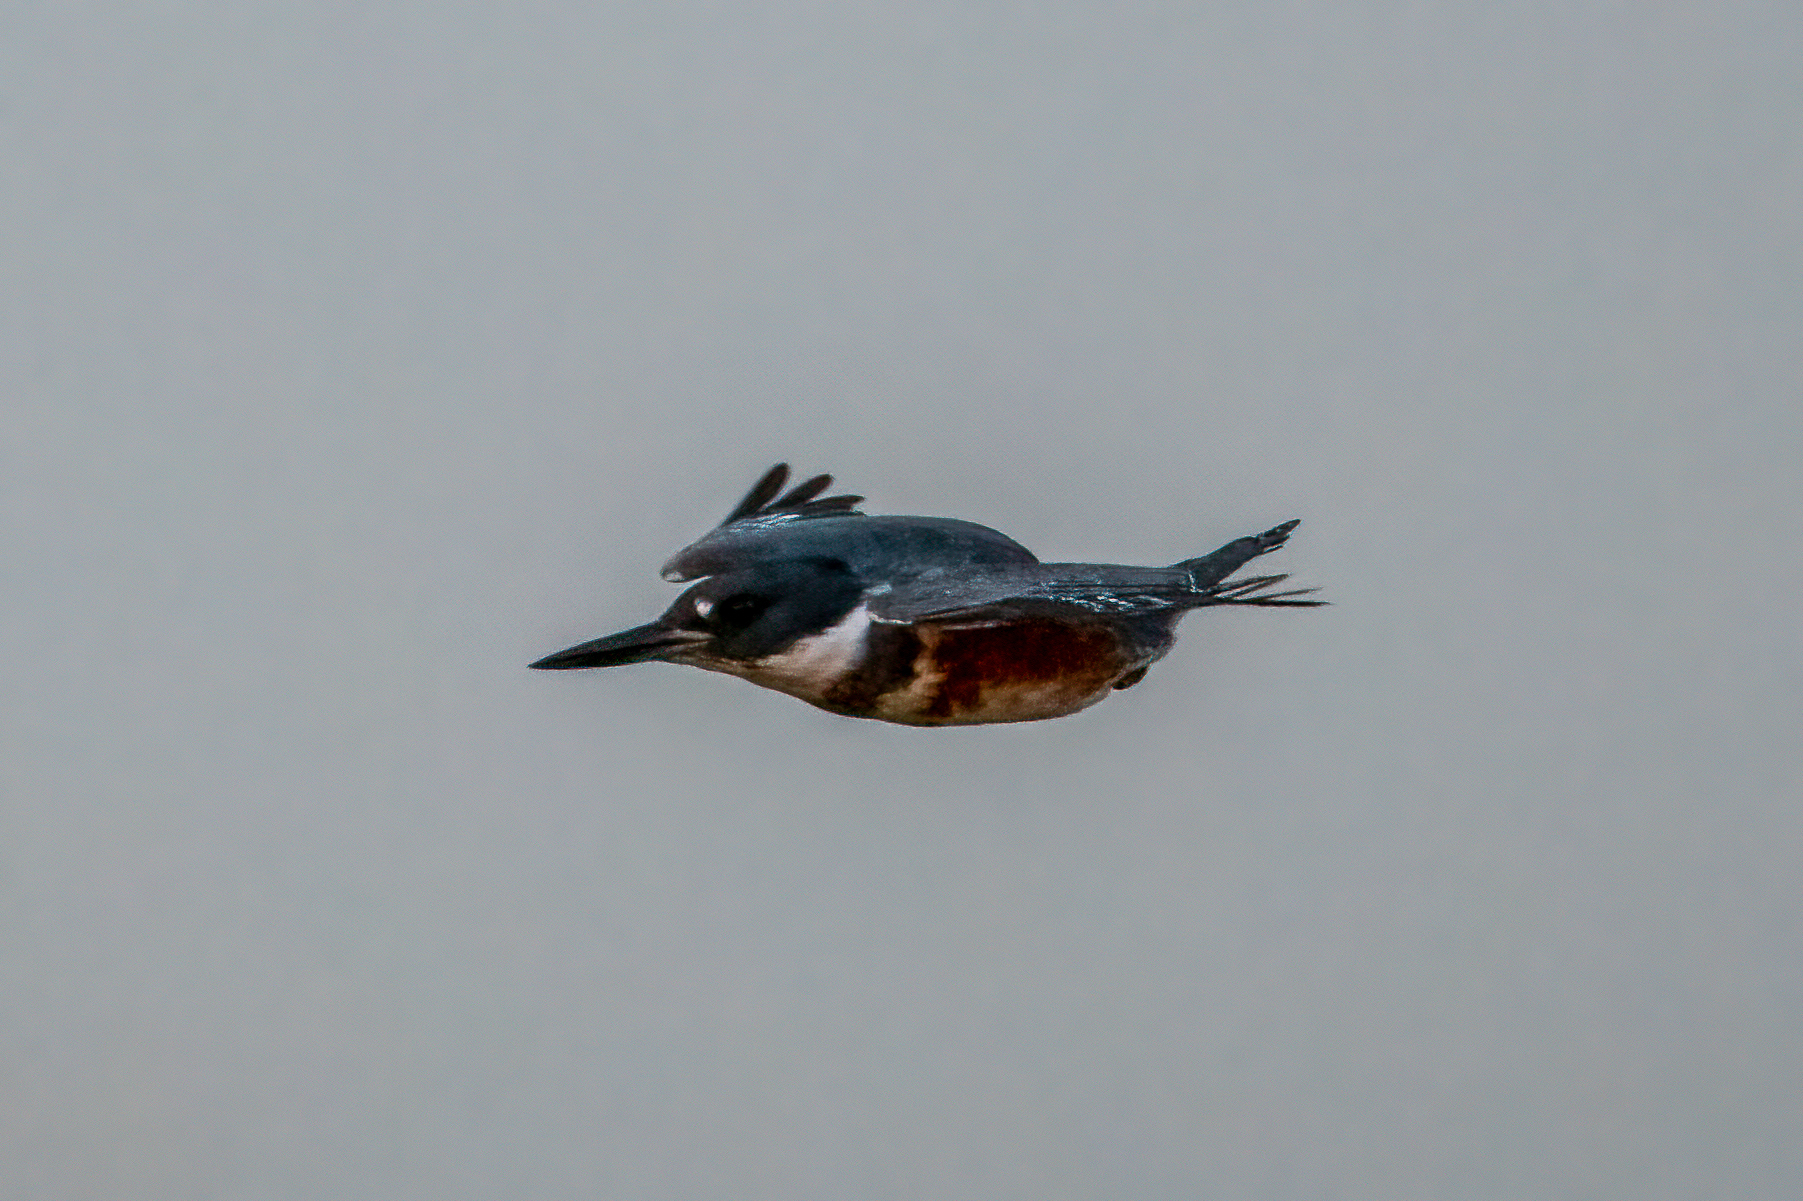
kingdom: Animalia
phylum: Chordata
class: Aves
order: Coraciiformes
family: Alcedinidae
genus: Megaceryle
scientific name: Megaceryle alcyon
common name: Belted kingfisher
